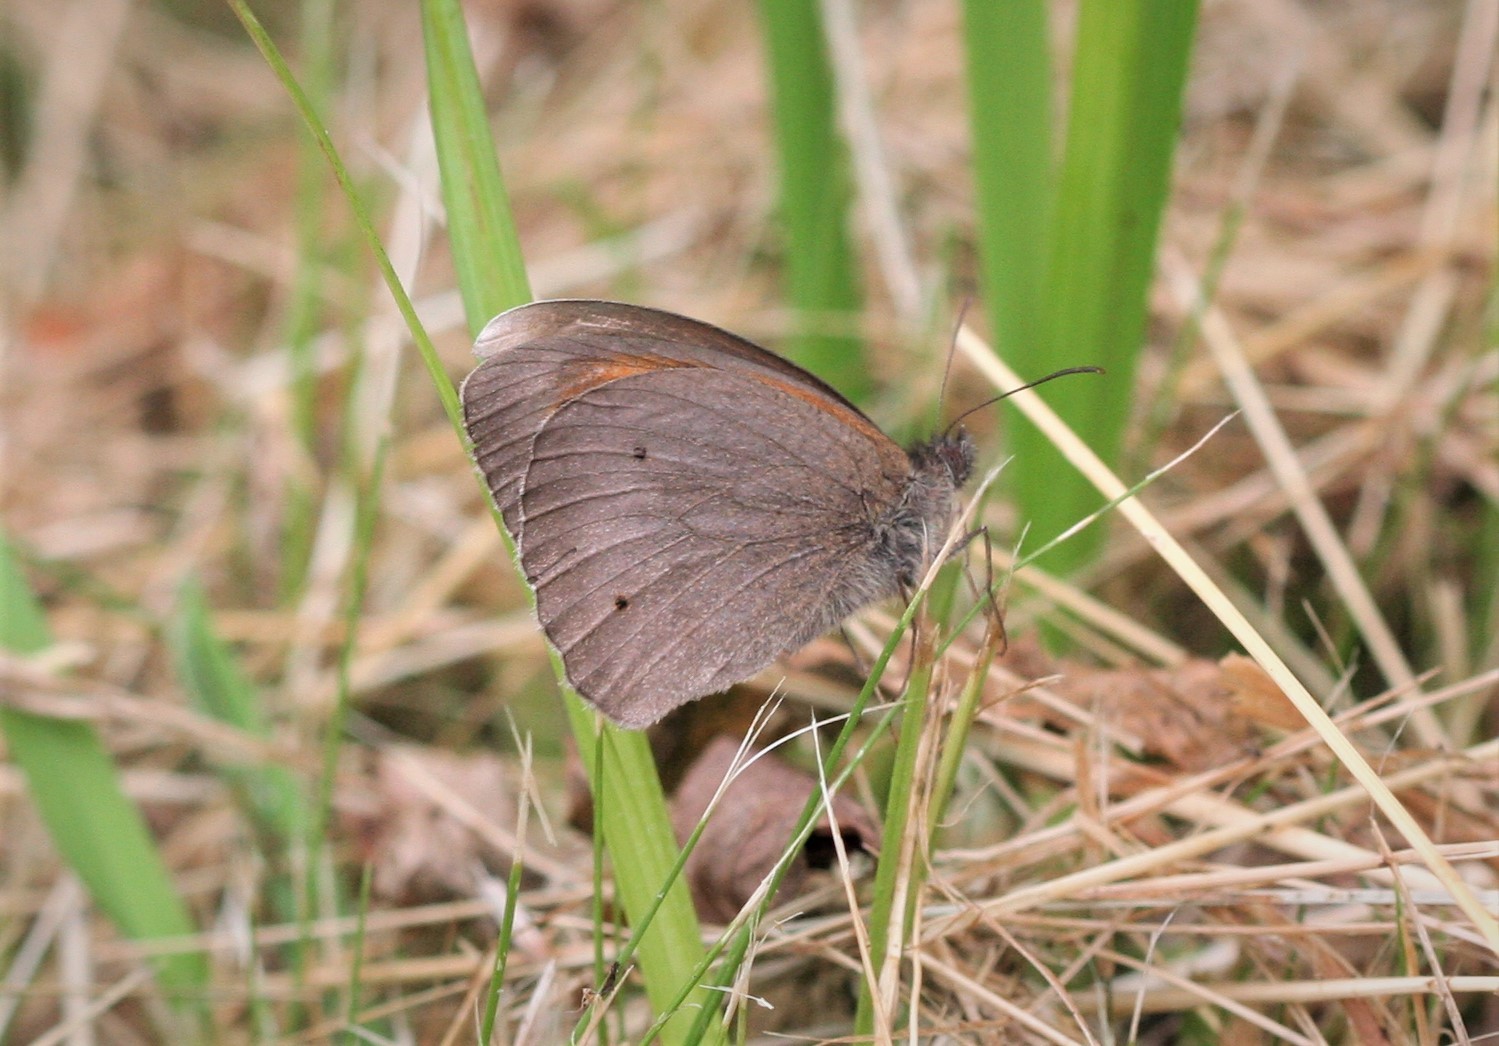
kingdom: Animalia
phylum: Arthropoda
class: Insecta
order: Lepidoptera
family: Nymphalidae
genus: Maniola
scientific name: Maniola jurtina
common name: Meadow brown
